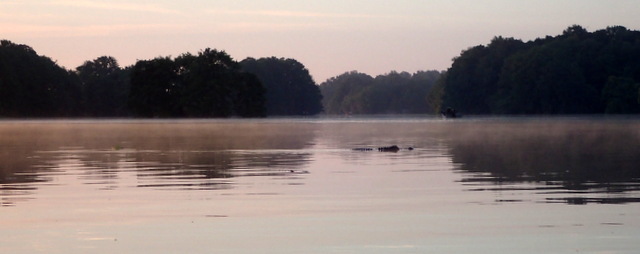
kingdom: Animalia
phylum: Chordata
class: Crocodylia
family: Alligatoridae
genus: Alligator
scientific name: Alligator mississippiensis
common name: American alligator
